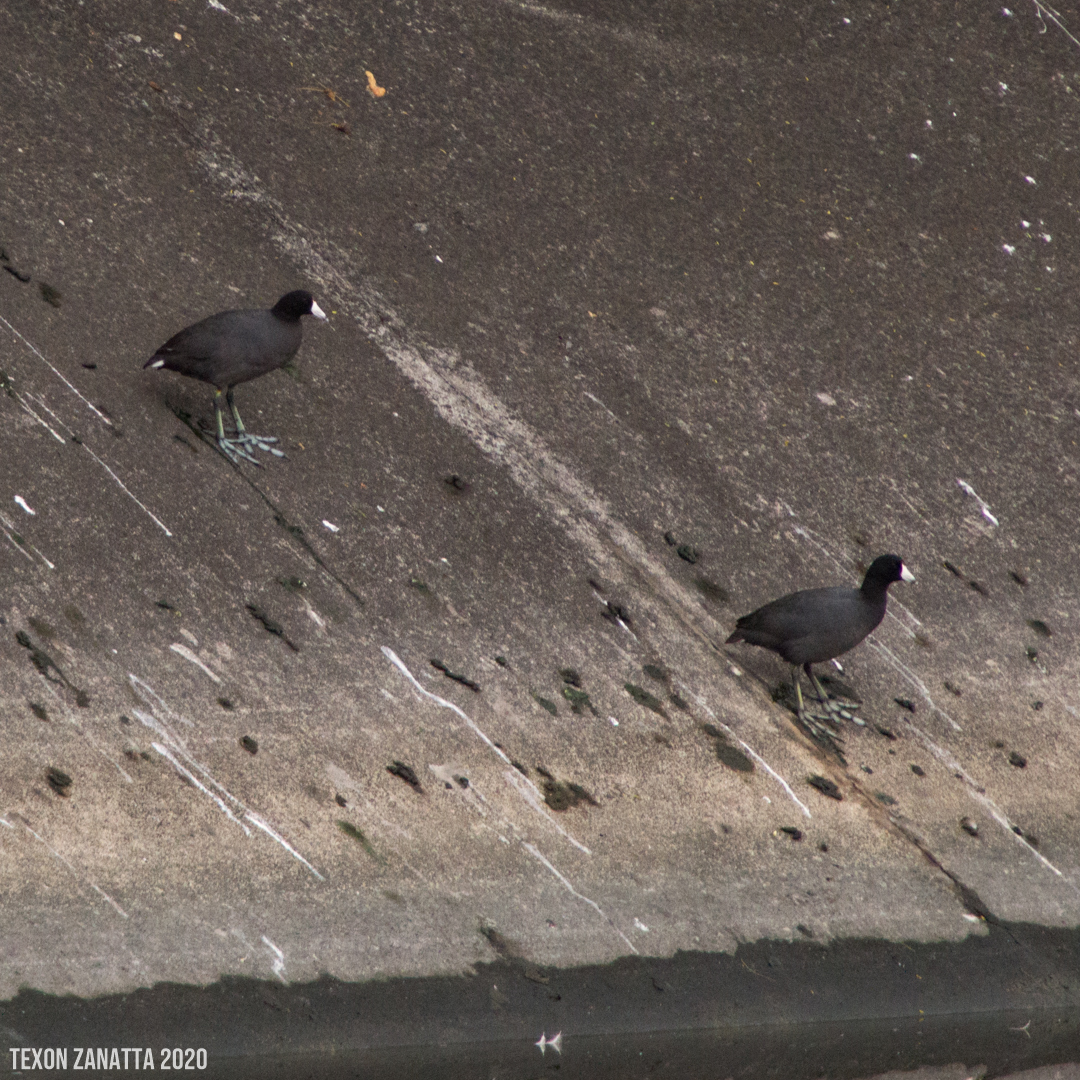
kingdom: Animalia
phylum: Chordata
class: Aves
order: Gruiformes
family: Rallidae
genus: Fulica
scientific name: Fulica americana
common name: American coot
